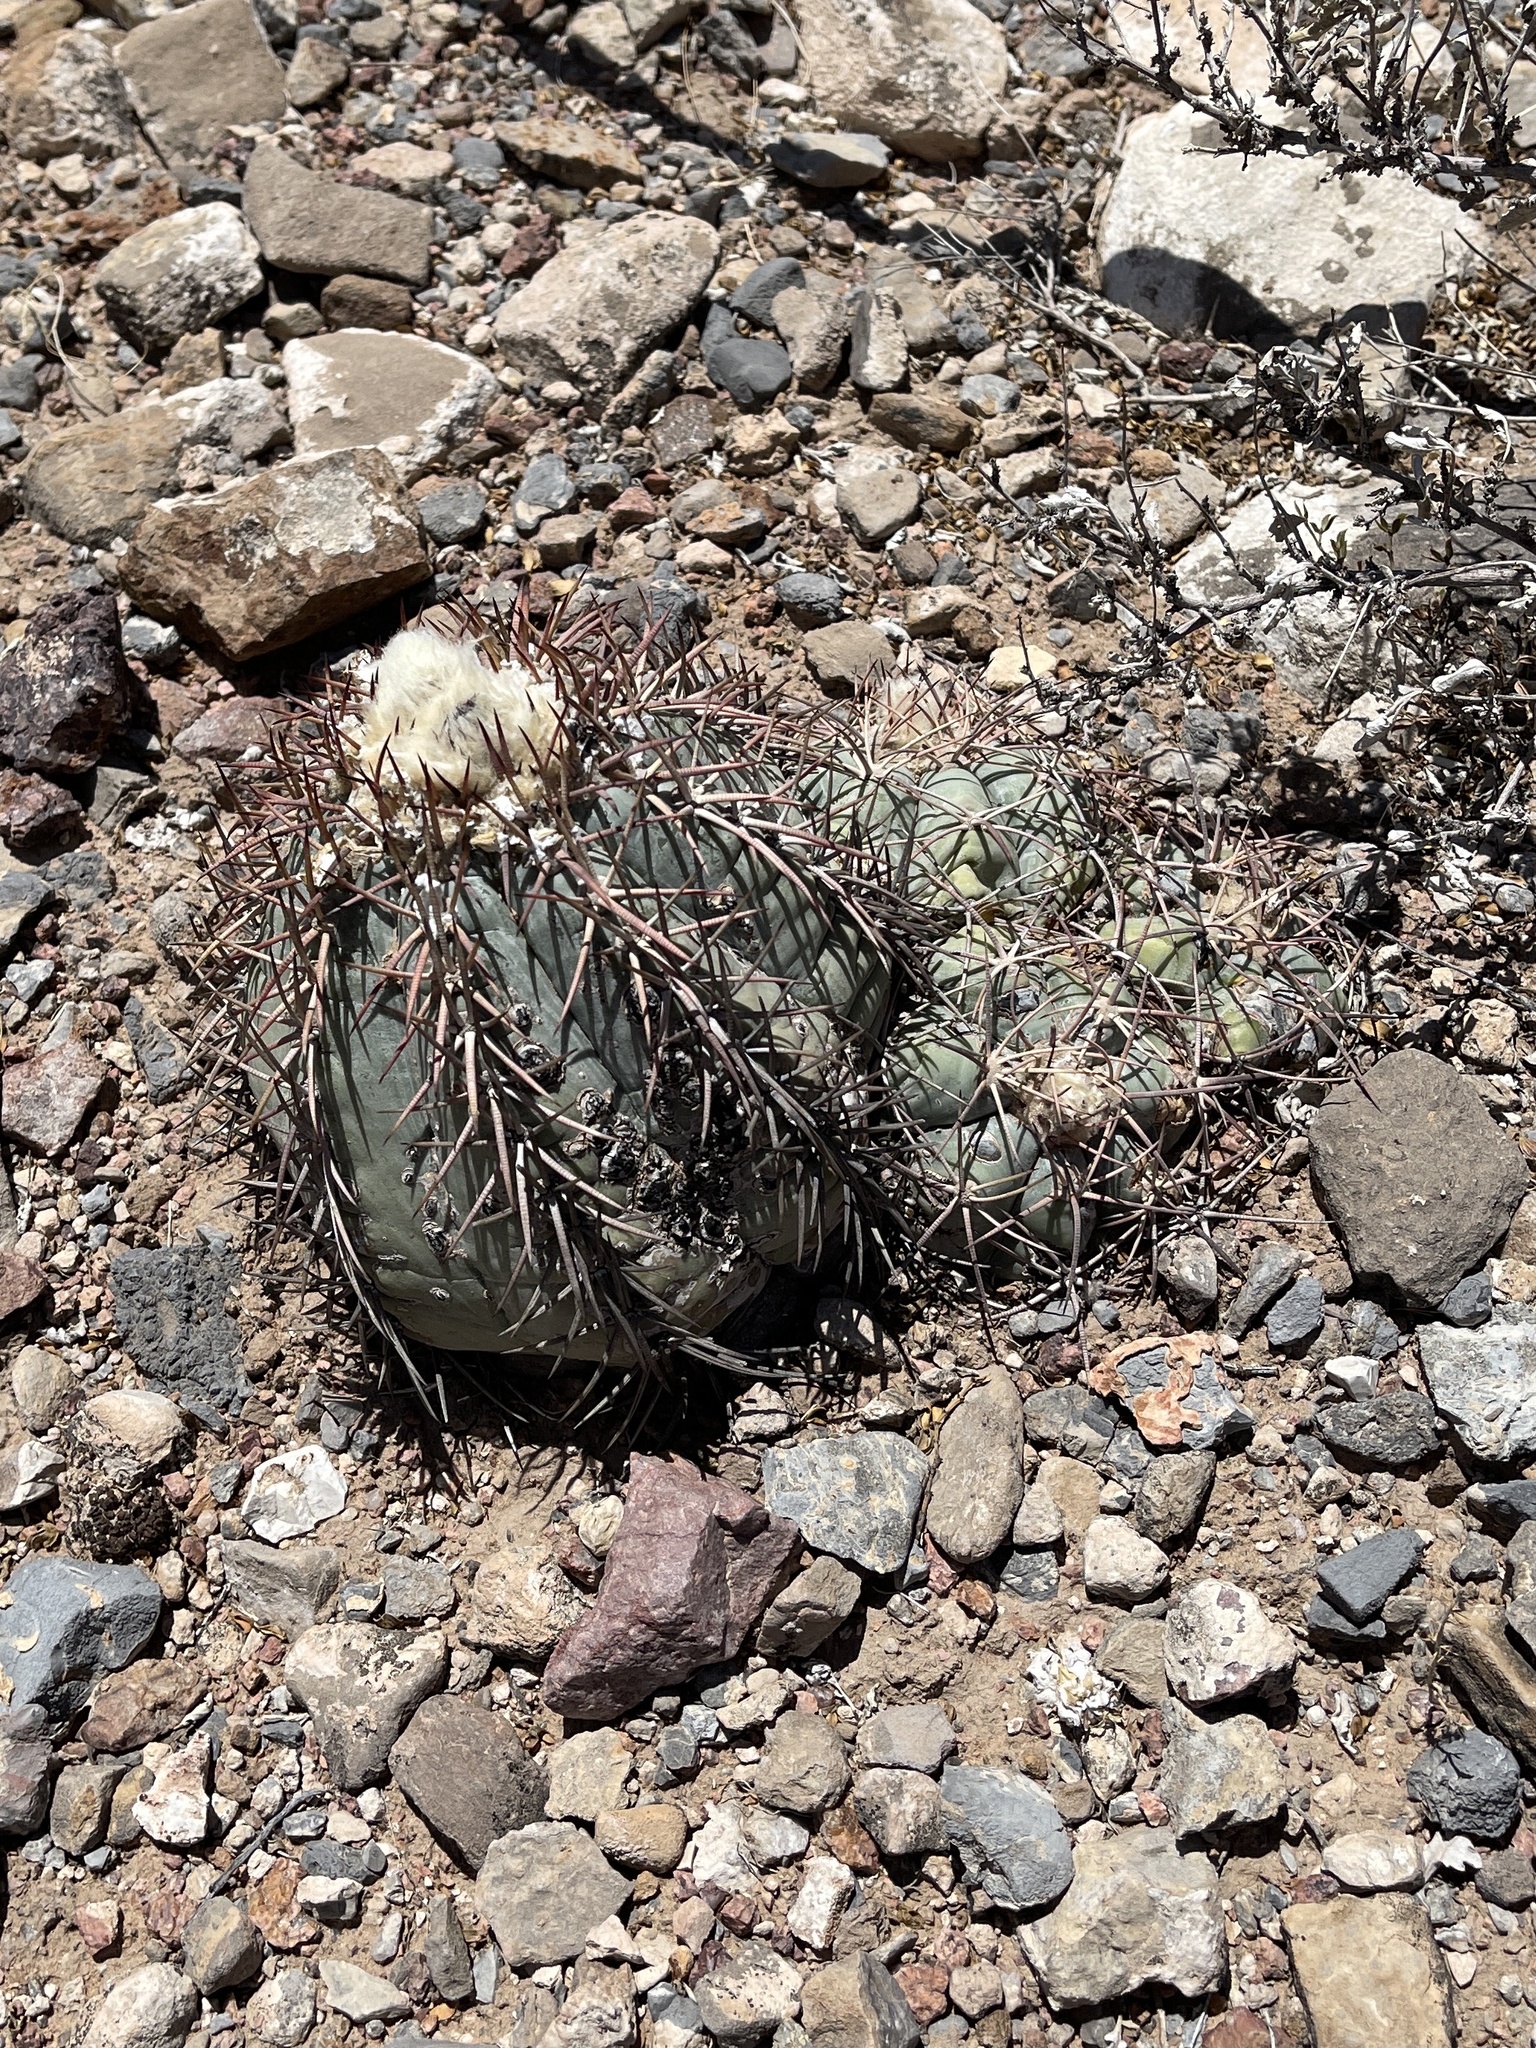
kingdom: Plantae
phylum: Tracheophyta
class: Magnoliopsida
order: Caryophyllales
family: Cactaceae
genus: Echinocactus
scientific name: Echinocactus horizonthalonius
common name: Devilshead
